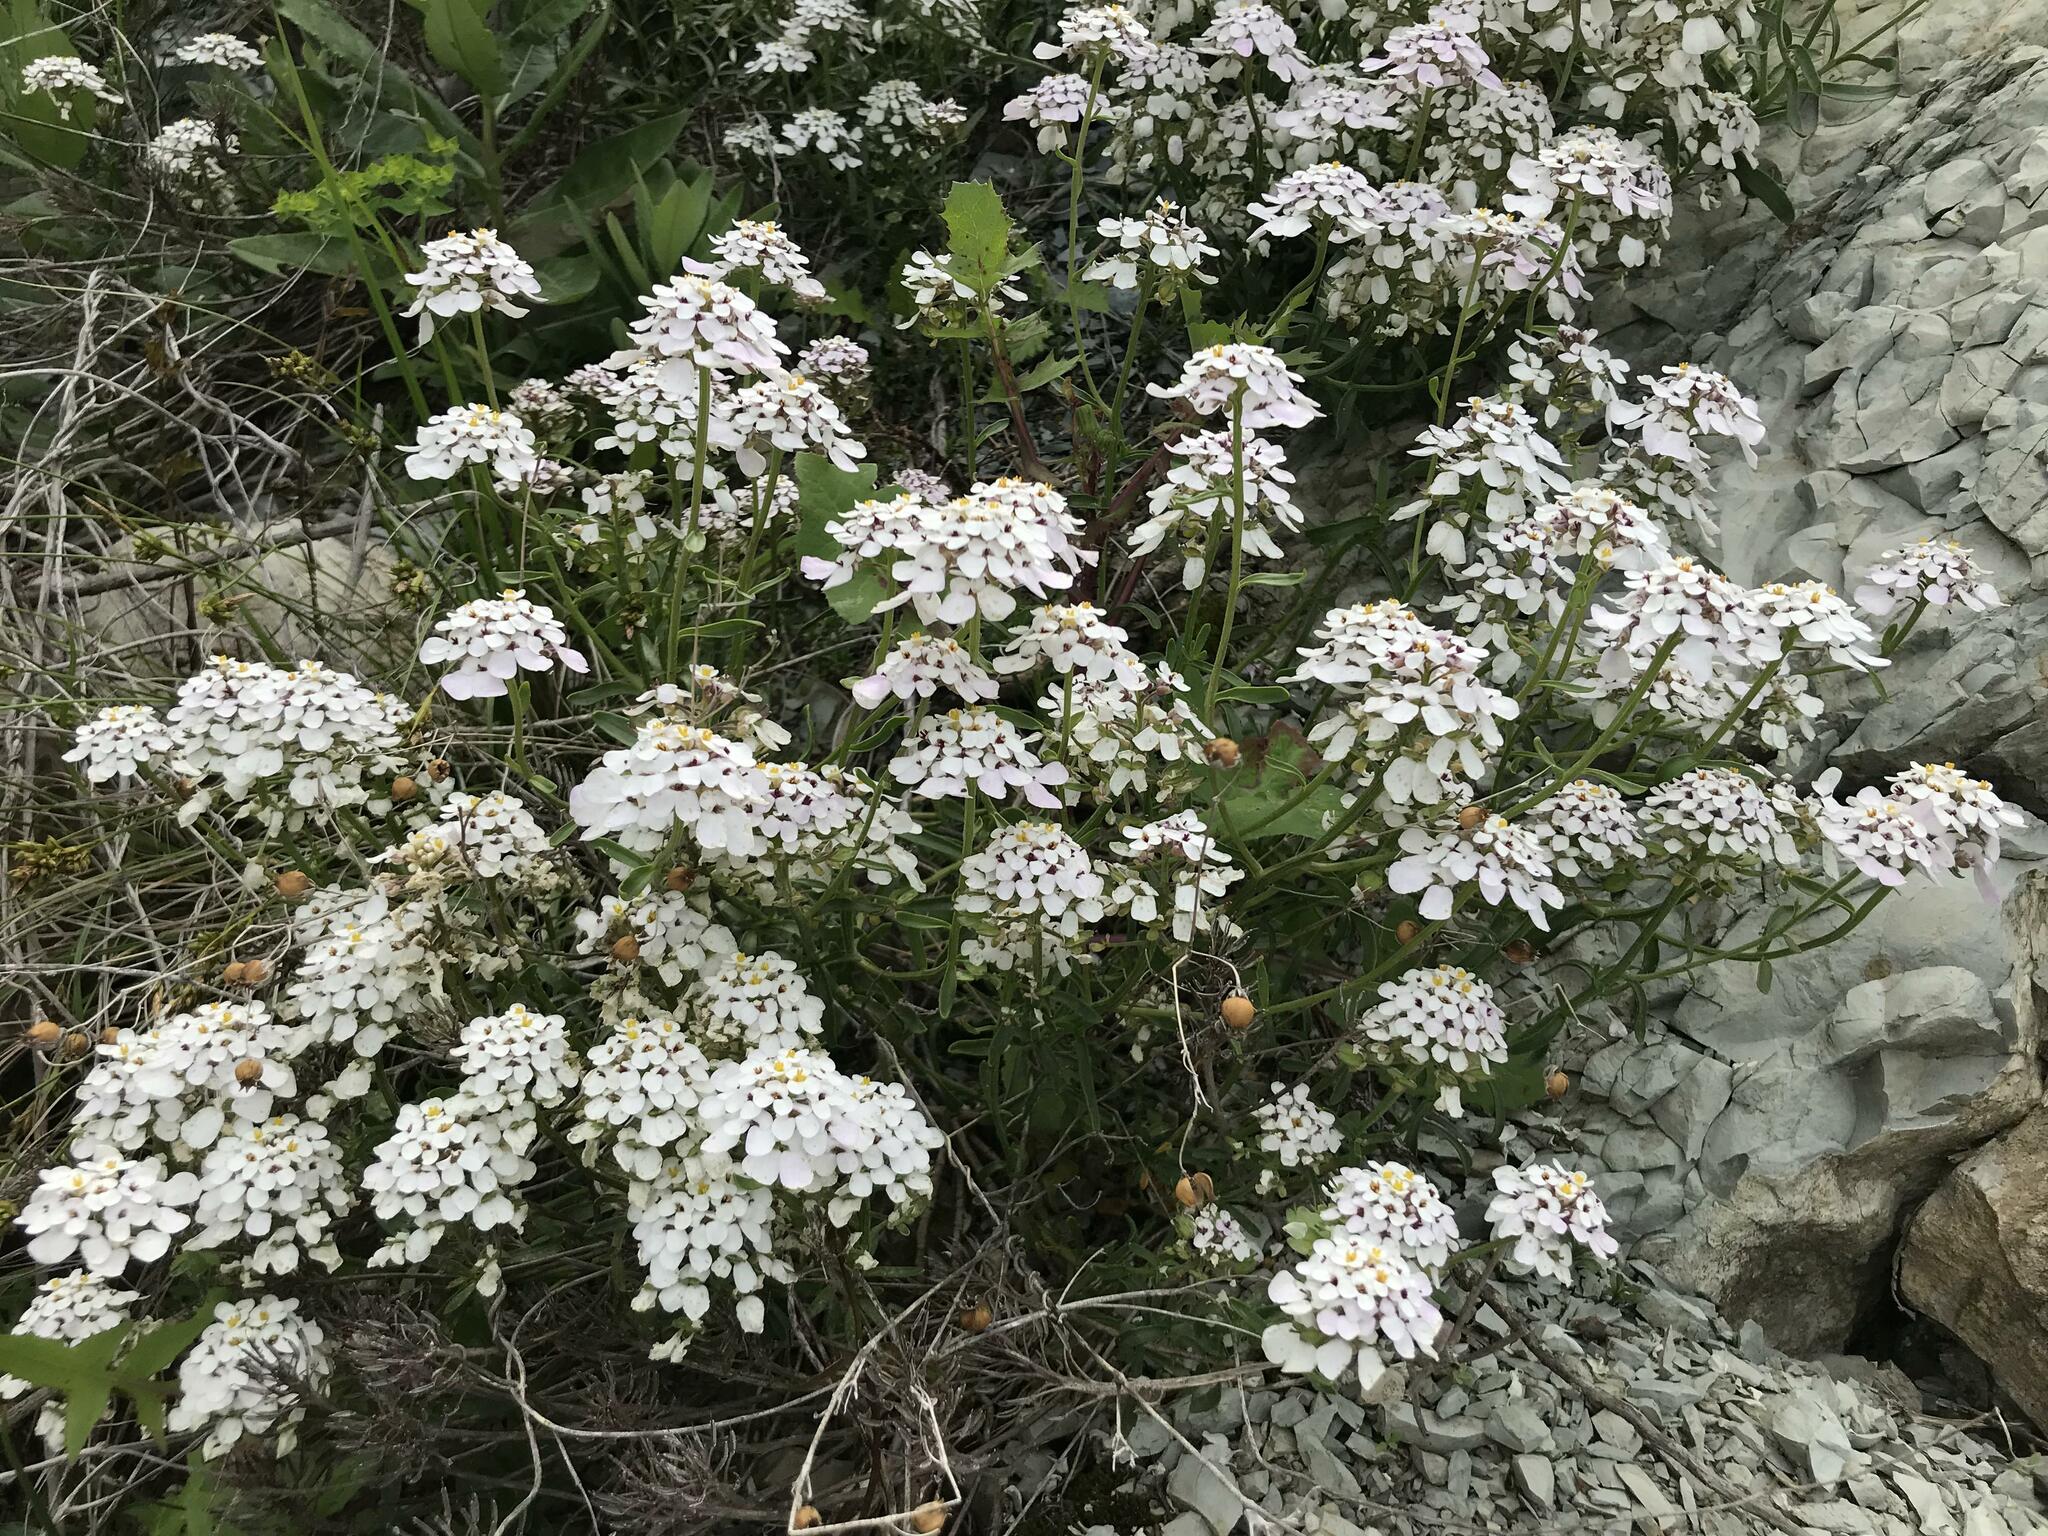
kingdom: Plantae
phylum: Tracheophyta
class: Magnoliopsida
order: Brassicales
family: Brassicaceae
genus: Iberis
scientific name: Iberis simplex
